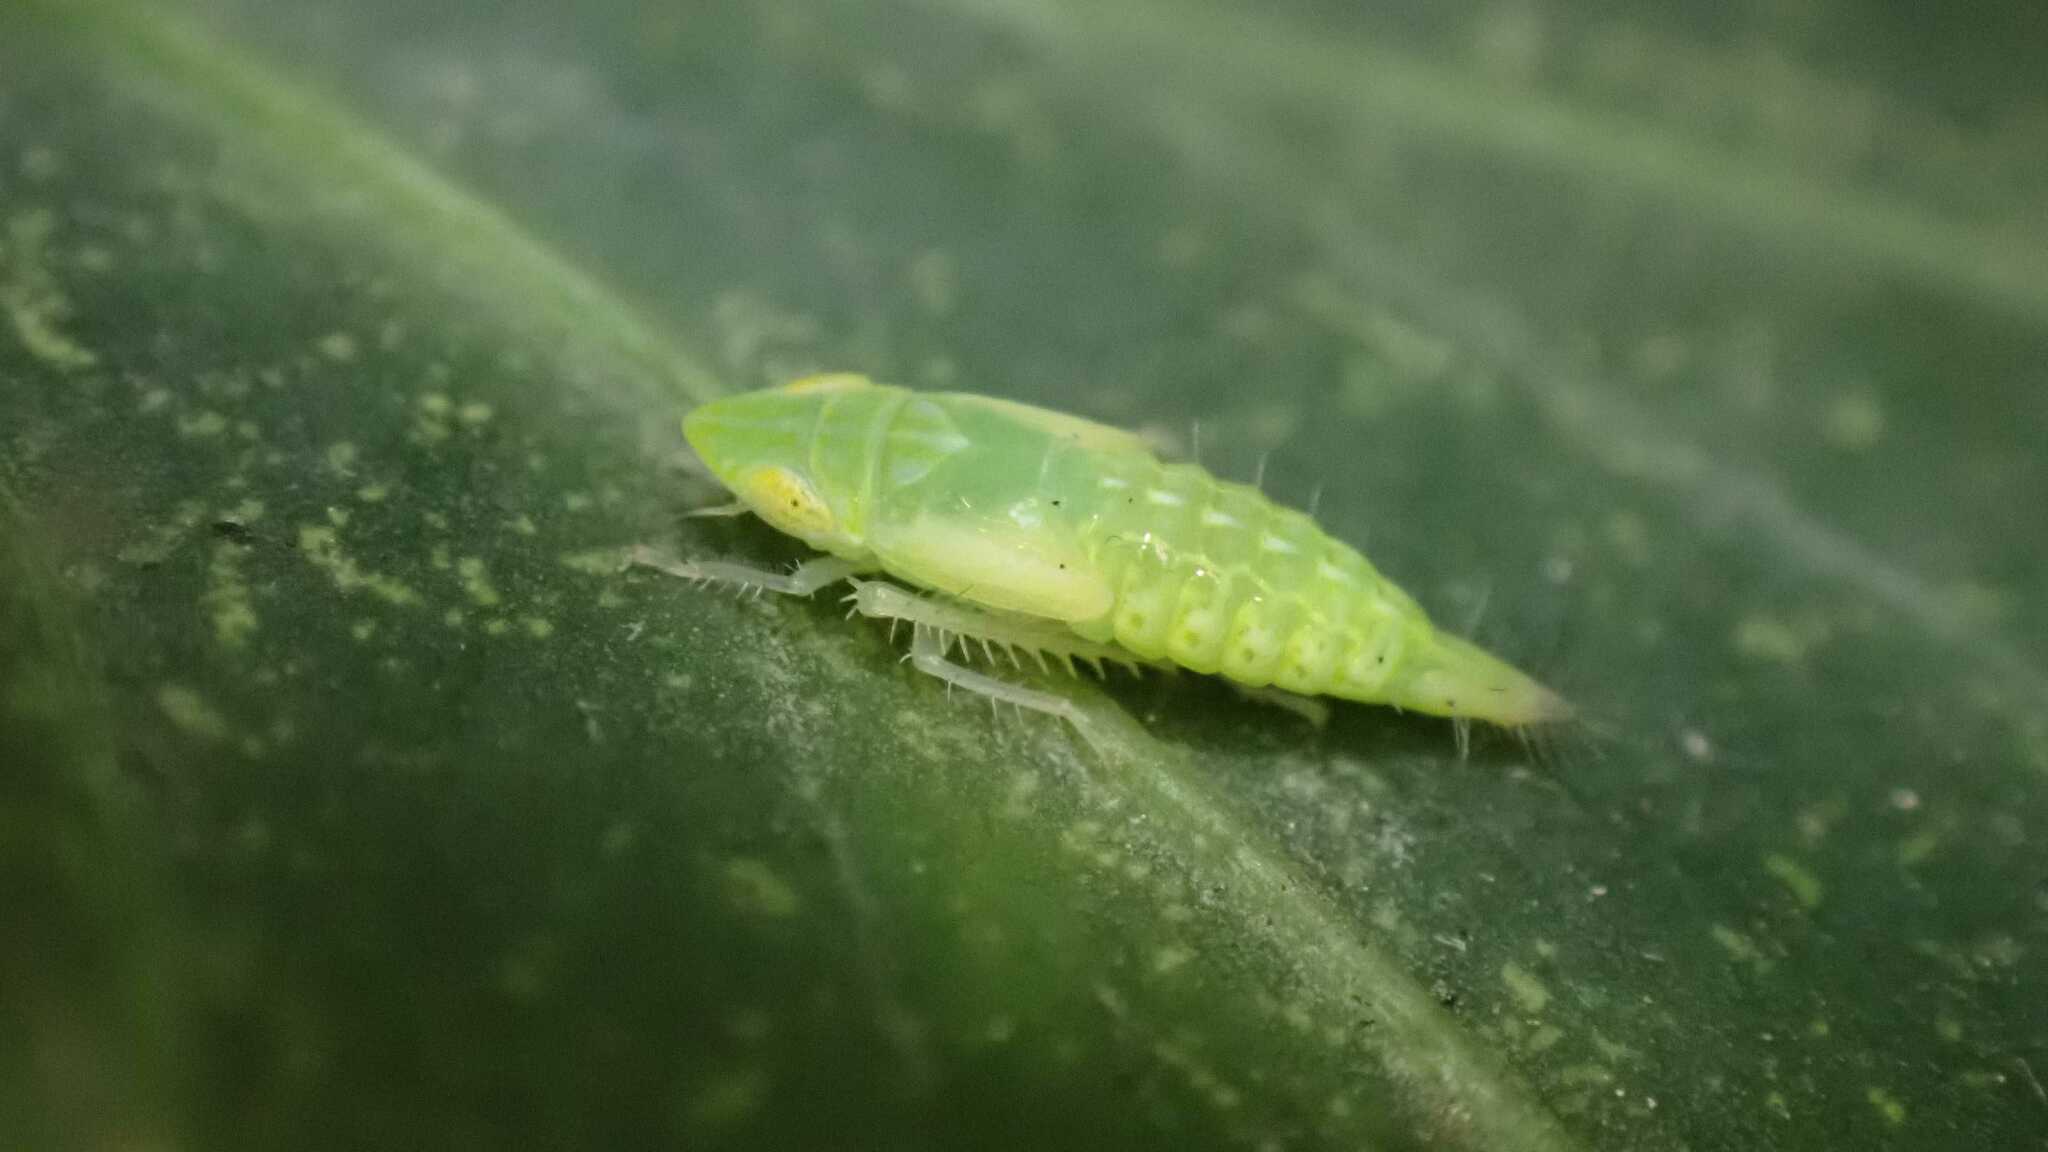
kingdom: Animalia
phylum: Arthropoda
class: Insecta
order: Hemiptera
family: Cicadellidae
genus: Synophropsis
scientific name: Synophropsis lauri
